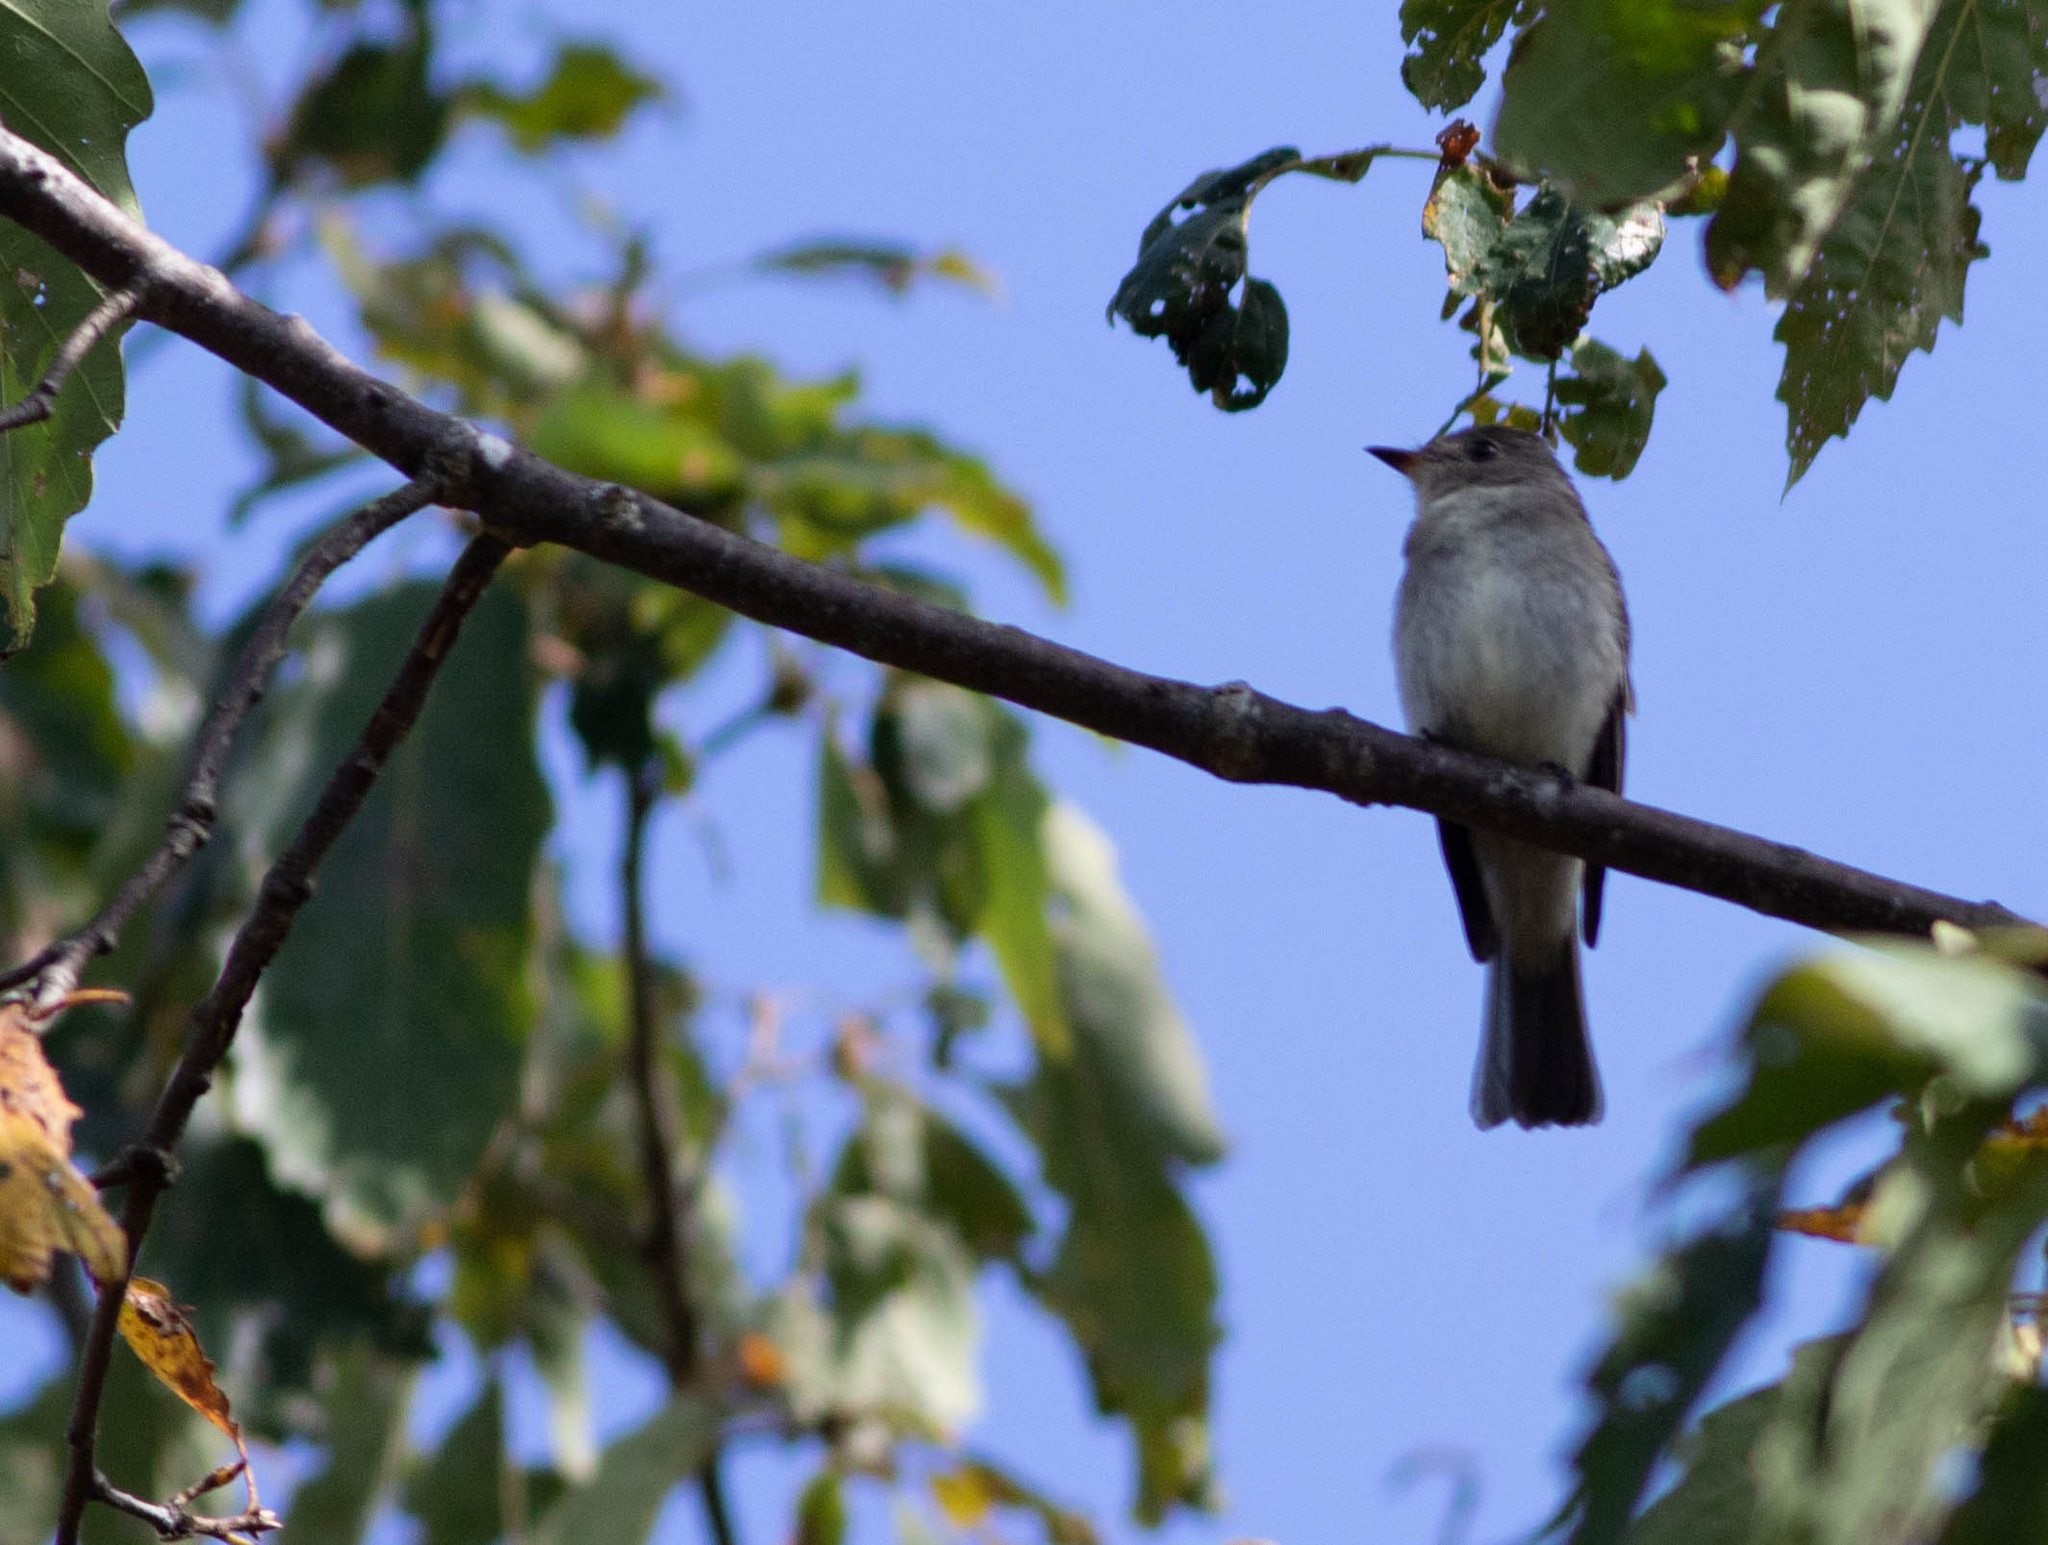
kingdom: Animalia
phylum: Chordata
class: Aves
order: Passeriformes
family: Tyrannidae
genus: Contopus
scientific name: Contopus virens
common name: Eastern wood-pewee
